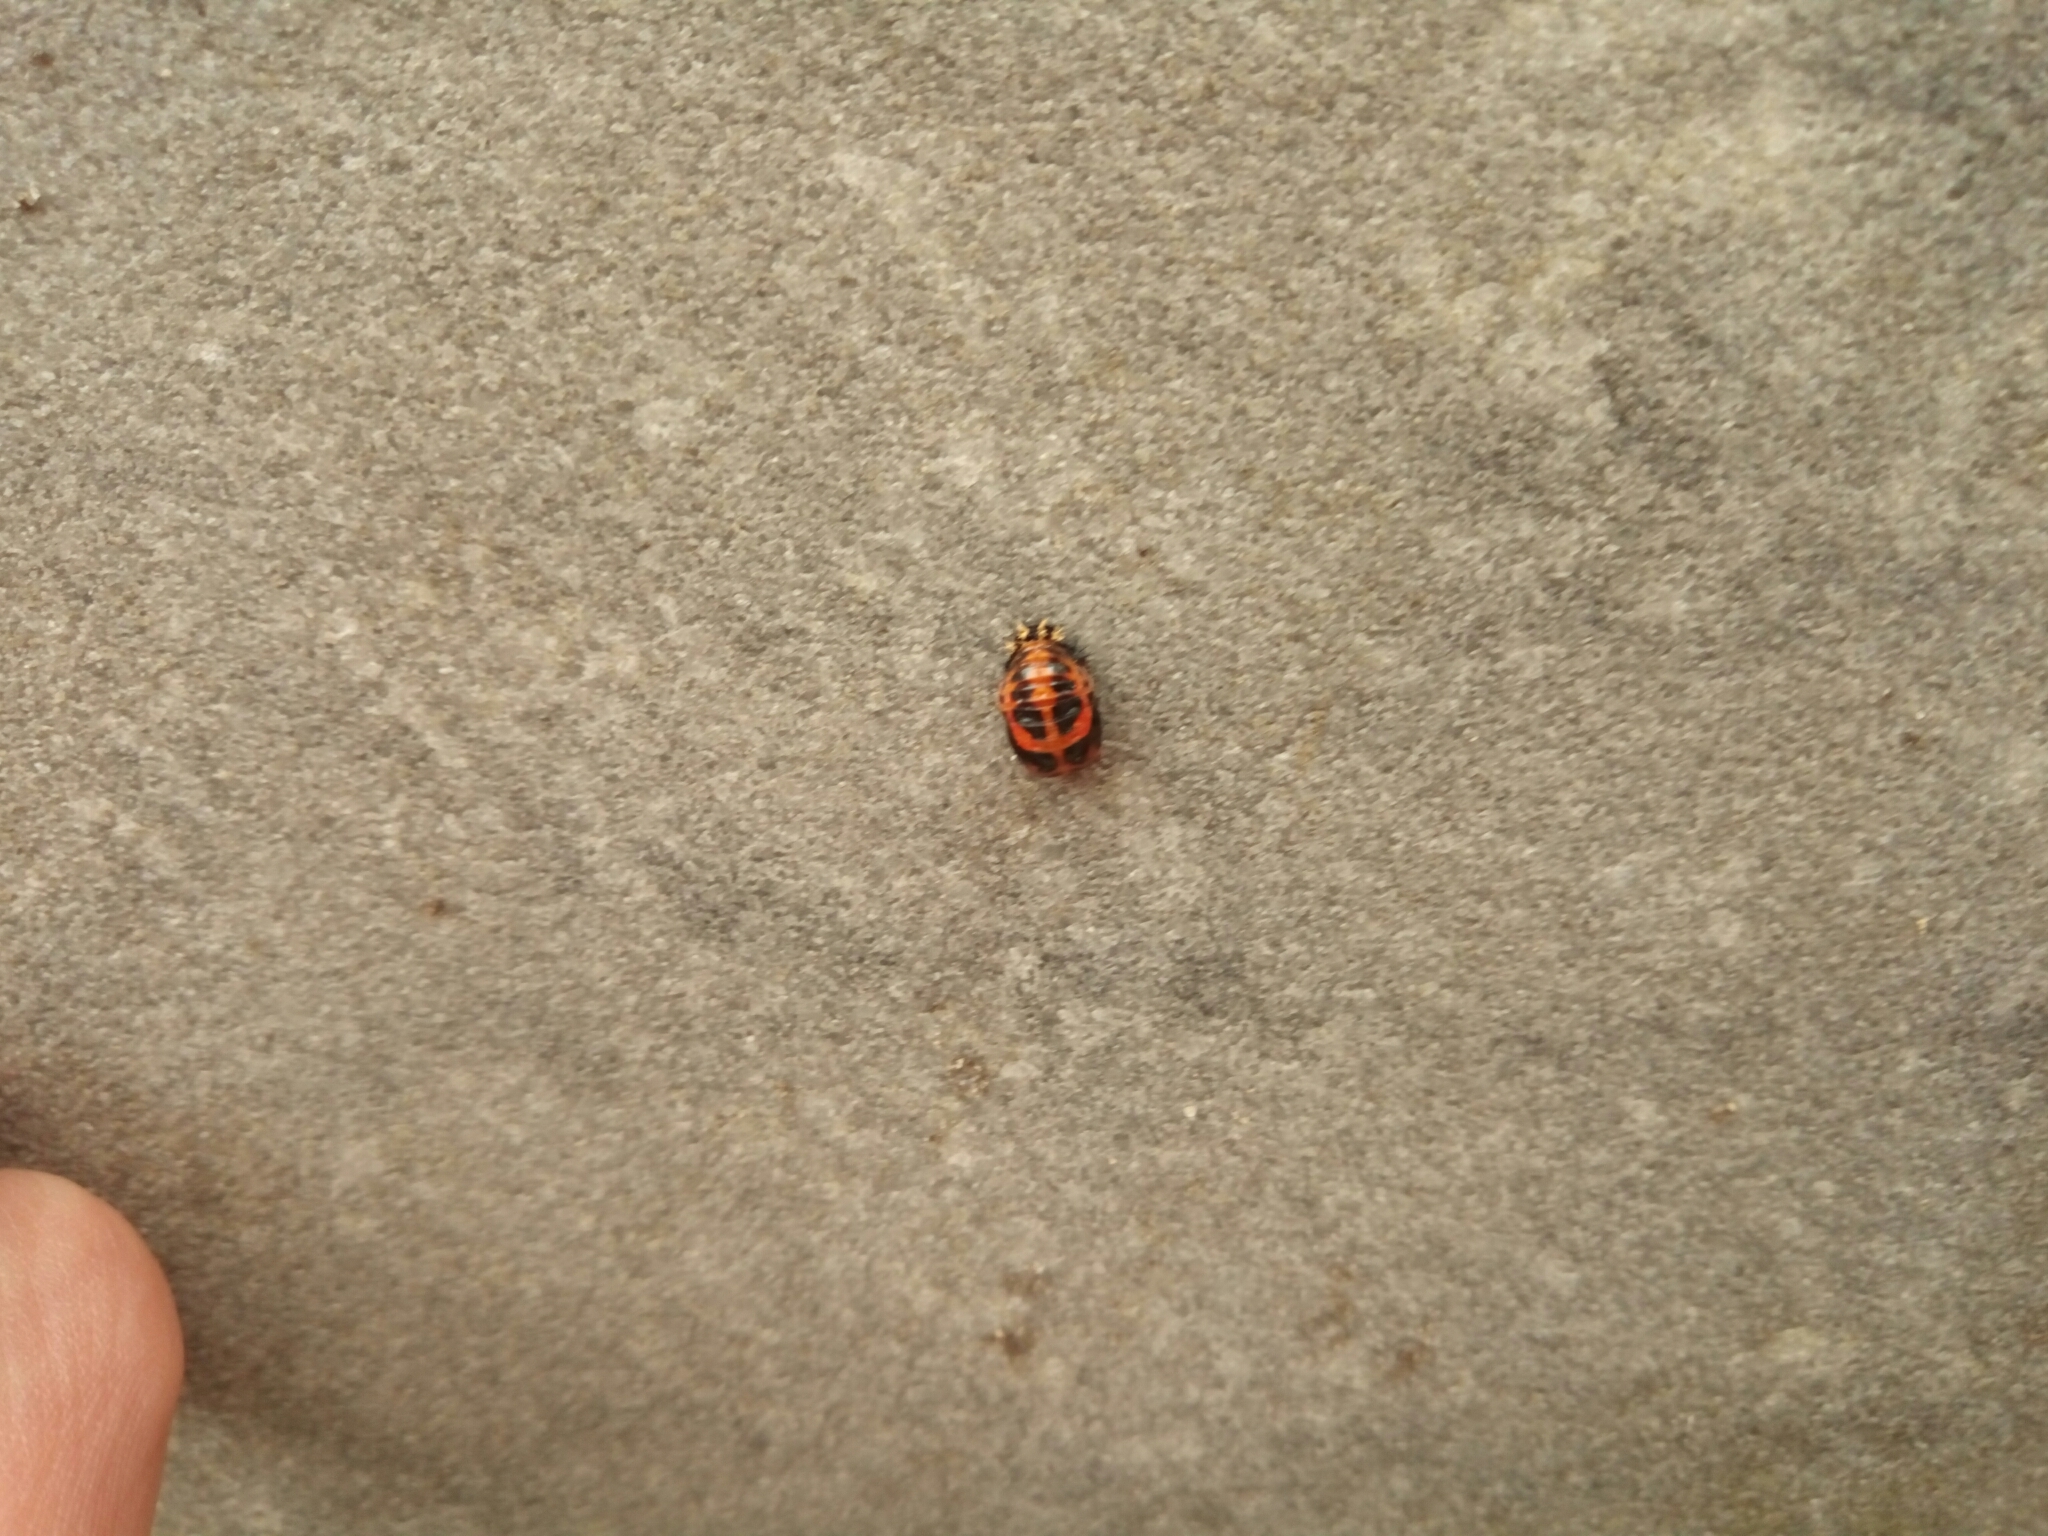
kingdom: Animalia
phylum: Arthropoda
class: Insecta
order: Coleoptera
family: Coccinellidae
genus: Harmonia
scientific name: Harmonia axyridis
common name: Harlequin ladybird
